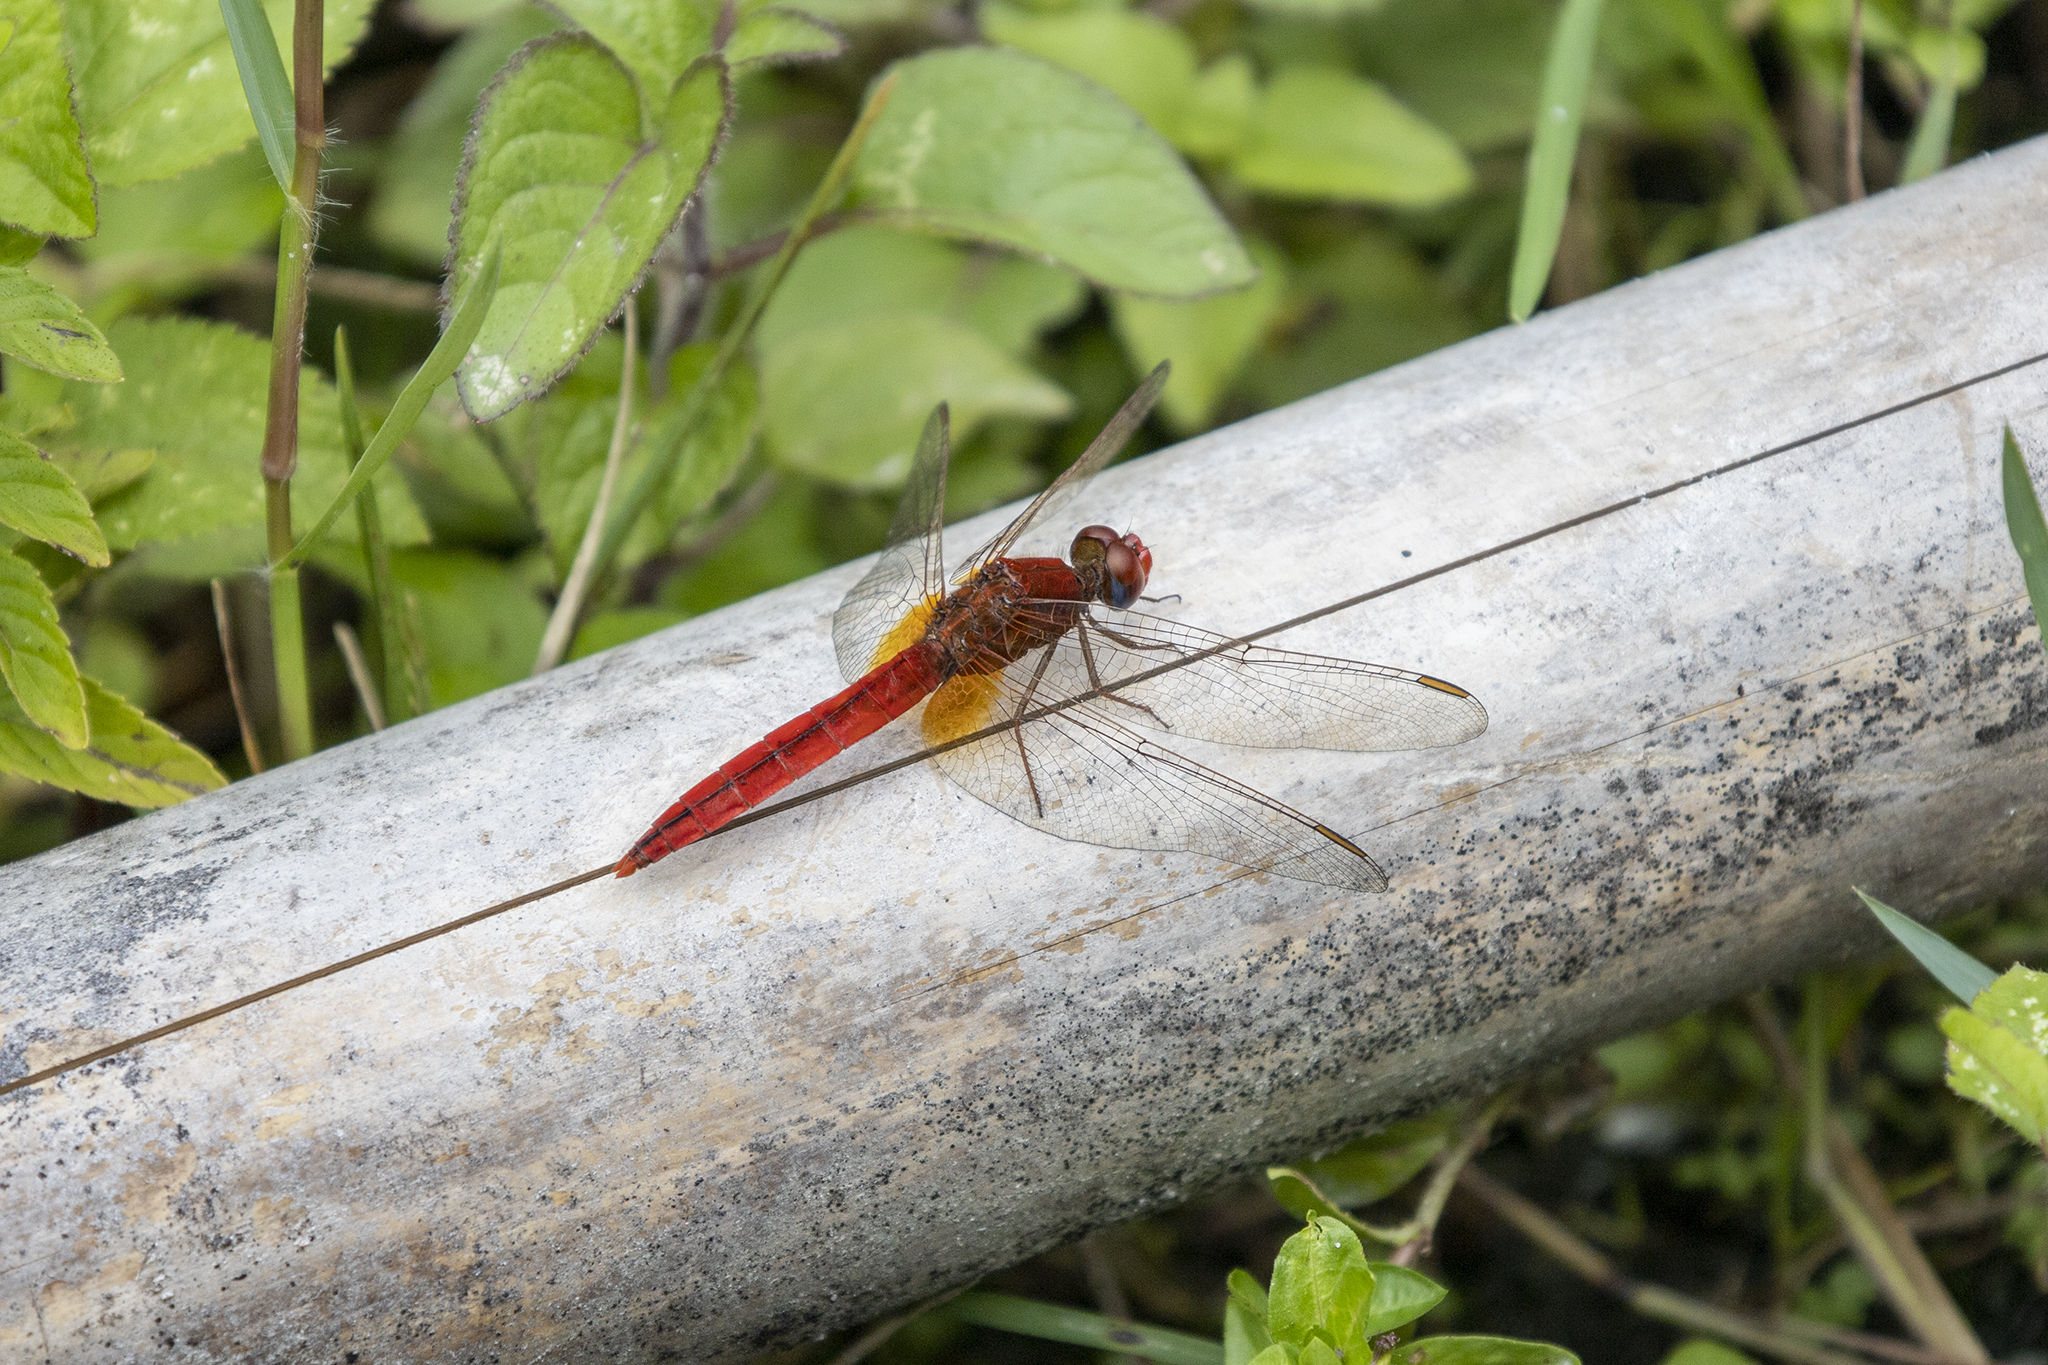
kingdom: Animalia
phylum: Arthropoda
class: Insecta
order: Odonata
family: Libellulidae
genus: Crocothemis
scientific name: Crocothemis servilia
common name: Scarlet skimmer
